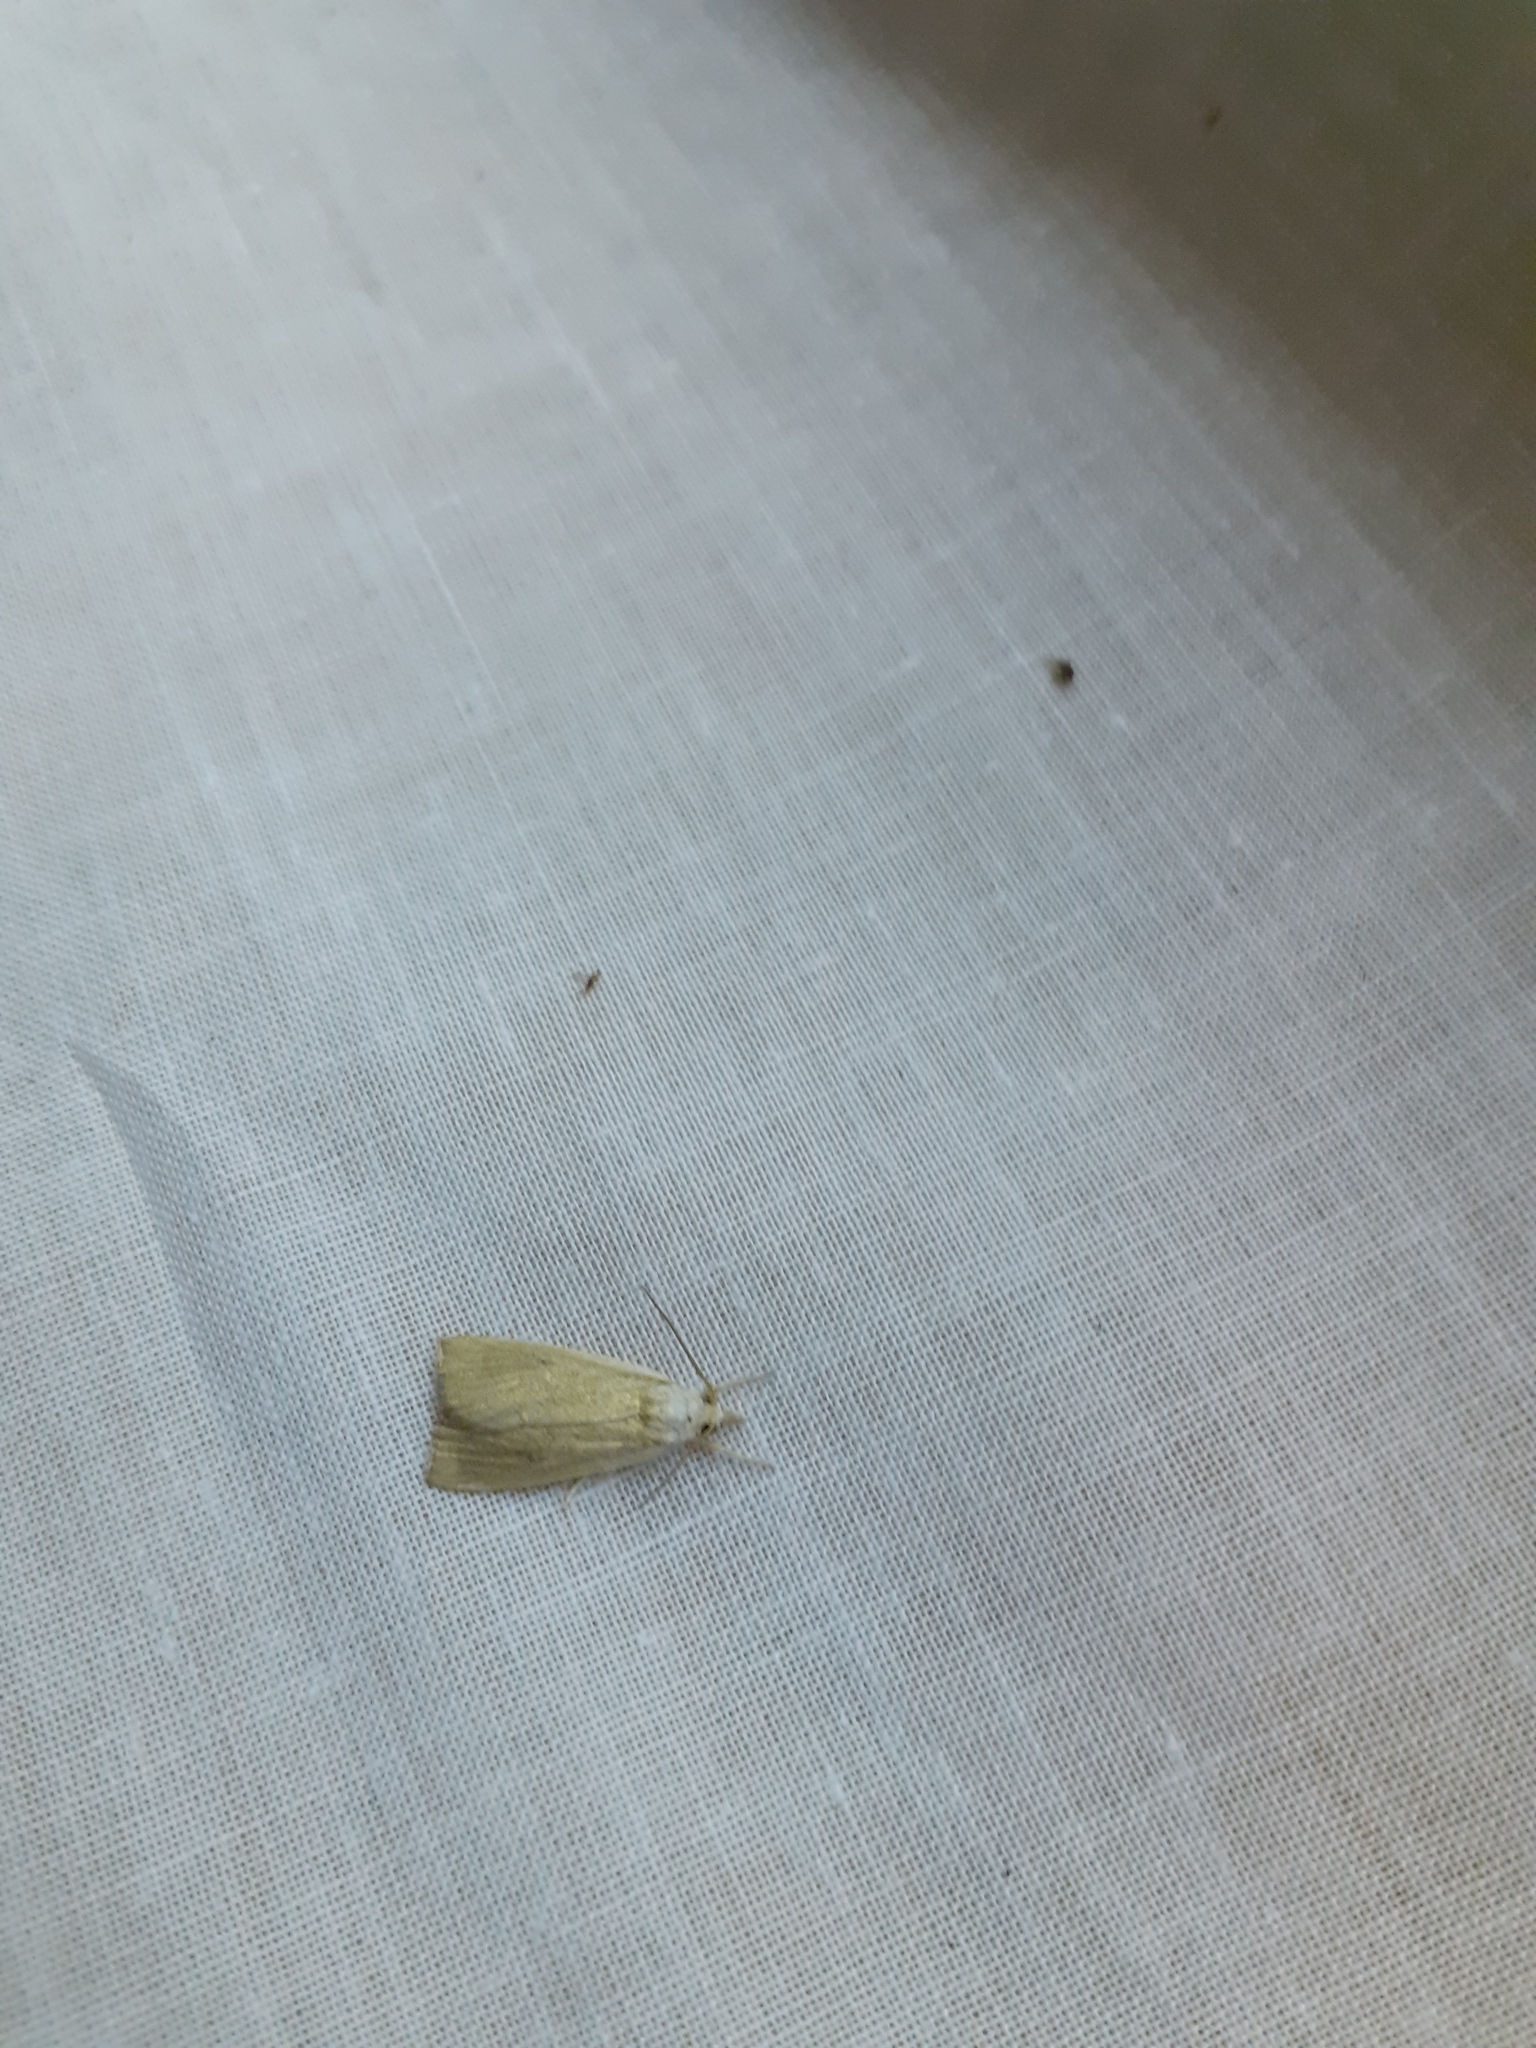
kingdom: Animalia
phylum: Arthropoda
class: Insecta
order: Lepidoptera
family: Crambidae
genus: Calamotropha
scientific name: Calamotropha paludella
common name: Bulrush veneer
